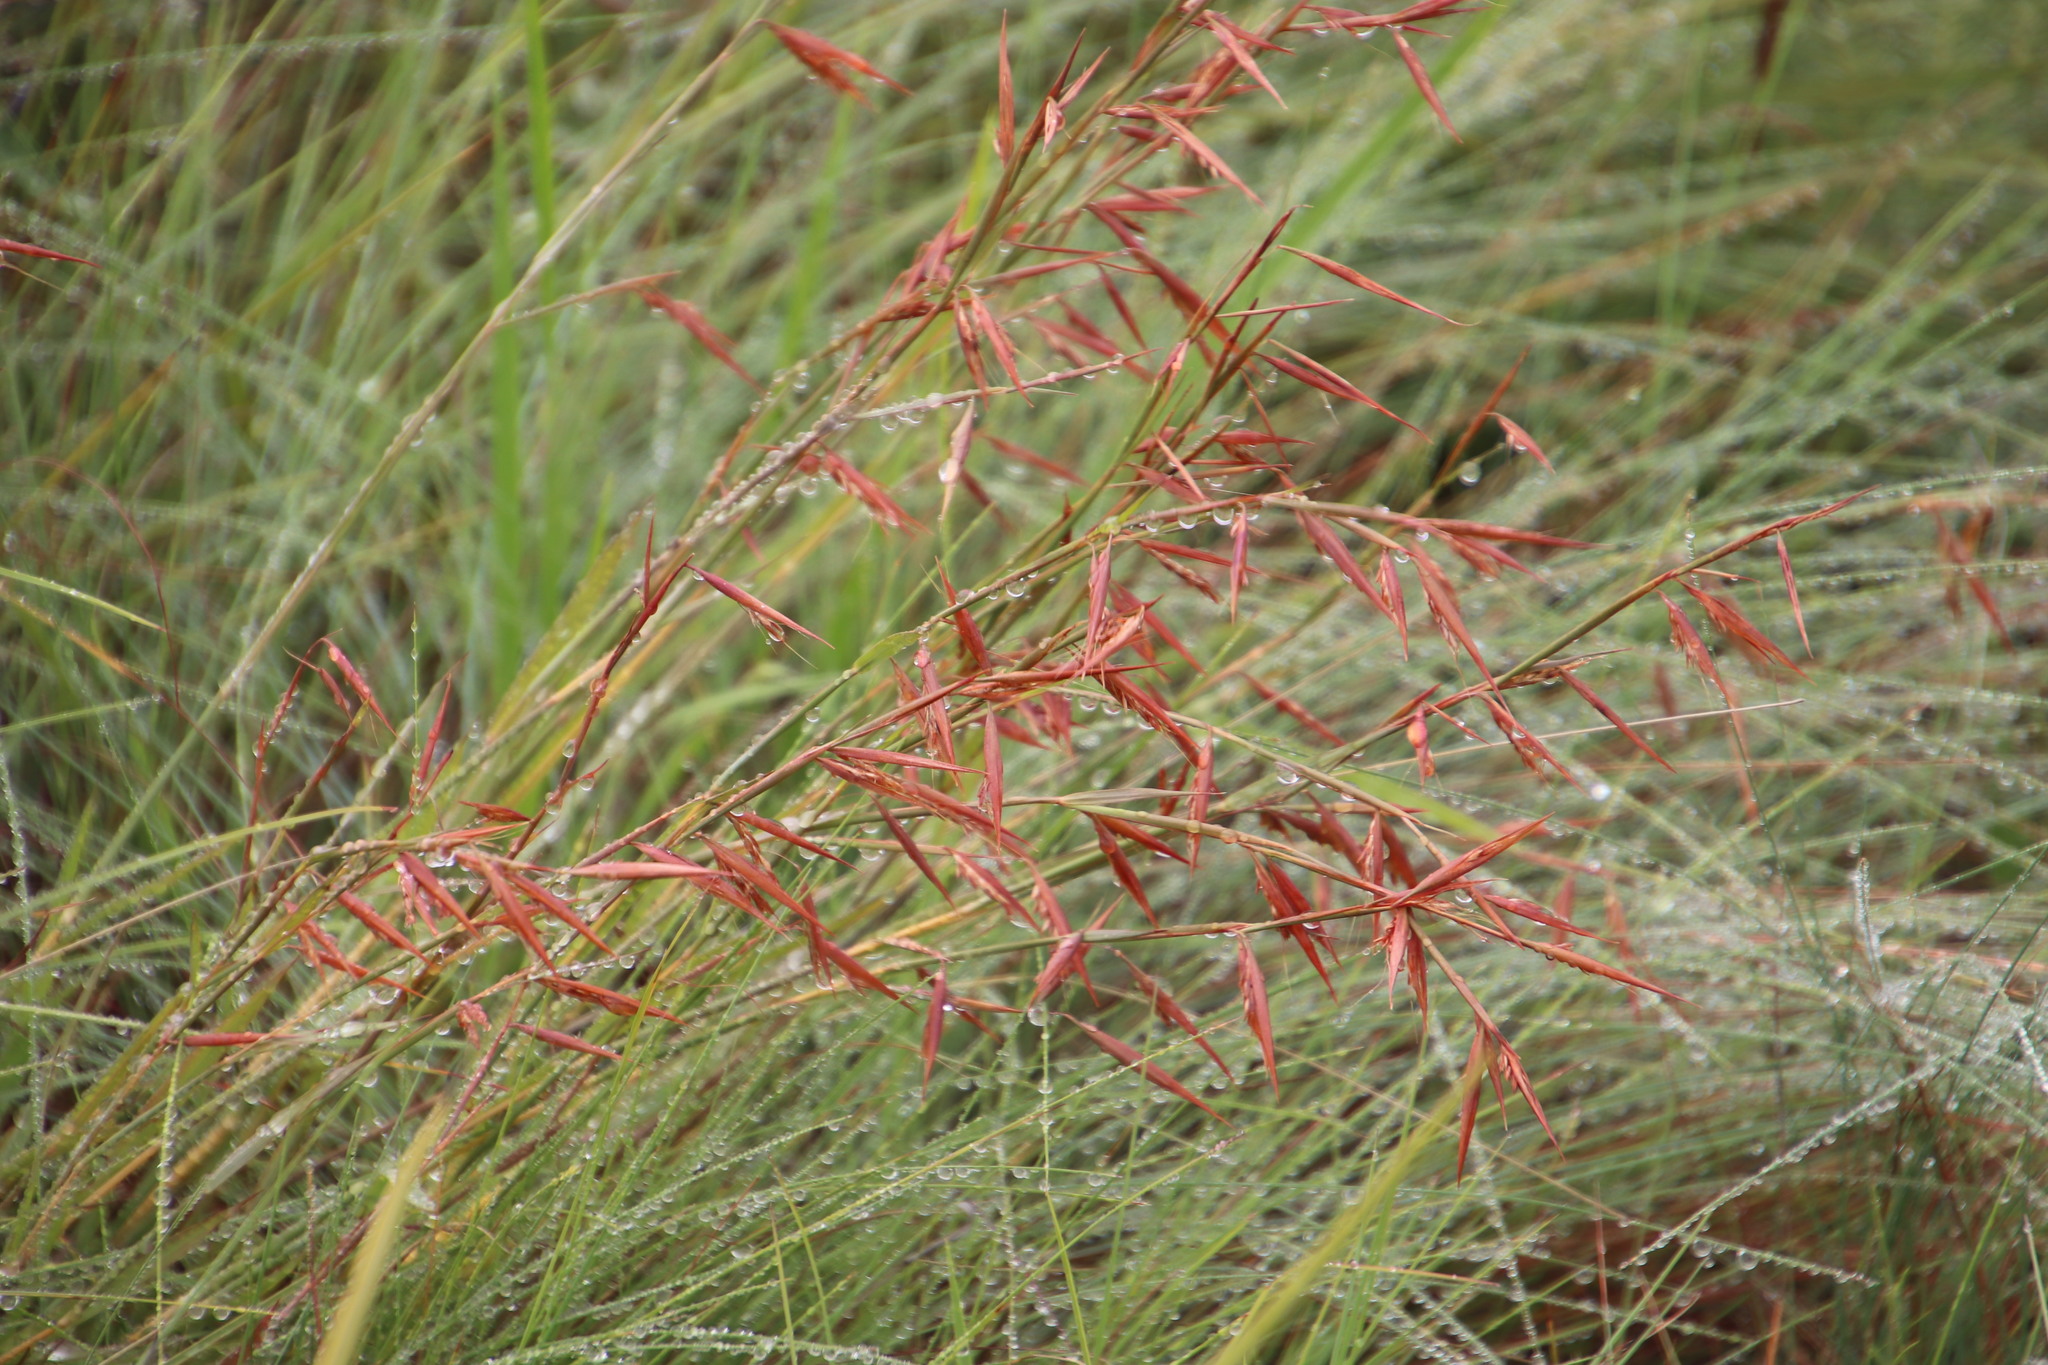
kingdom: Plantae
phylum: Tracheophyta
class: Liliopsida
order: Poales
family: Poaceae
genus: Monocymbium
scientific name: Monocymbium ceresiiforme
